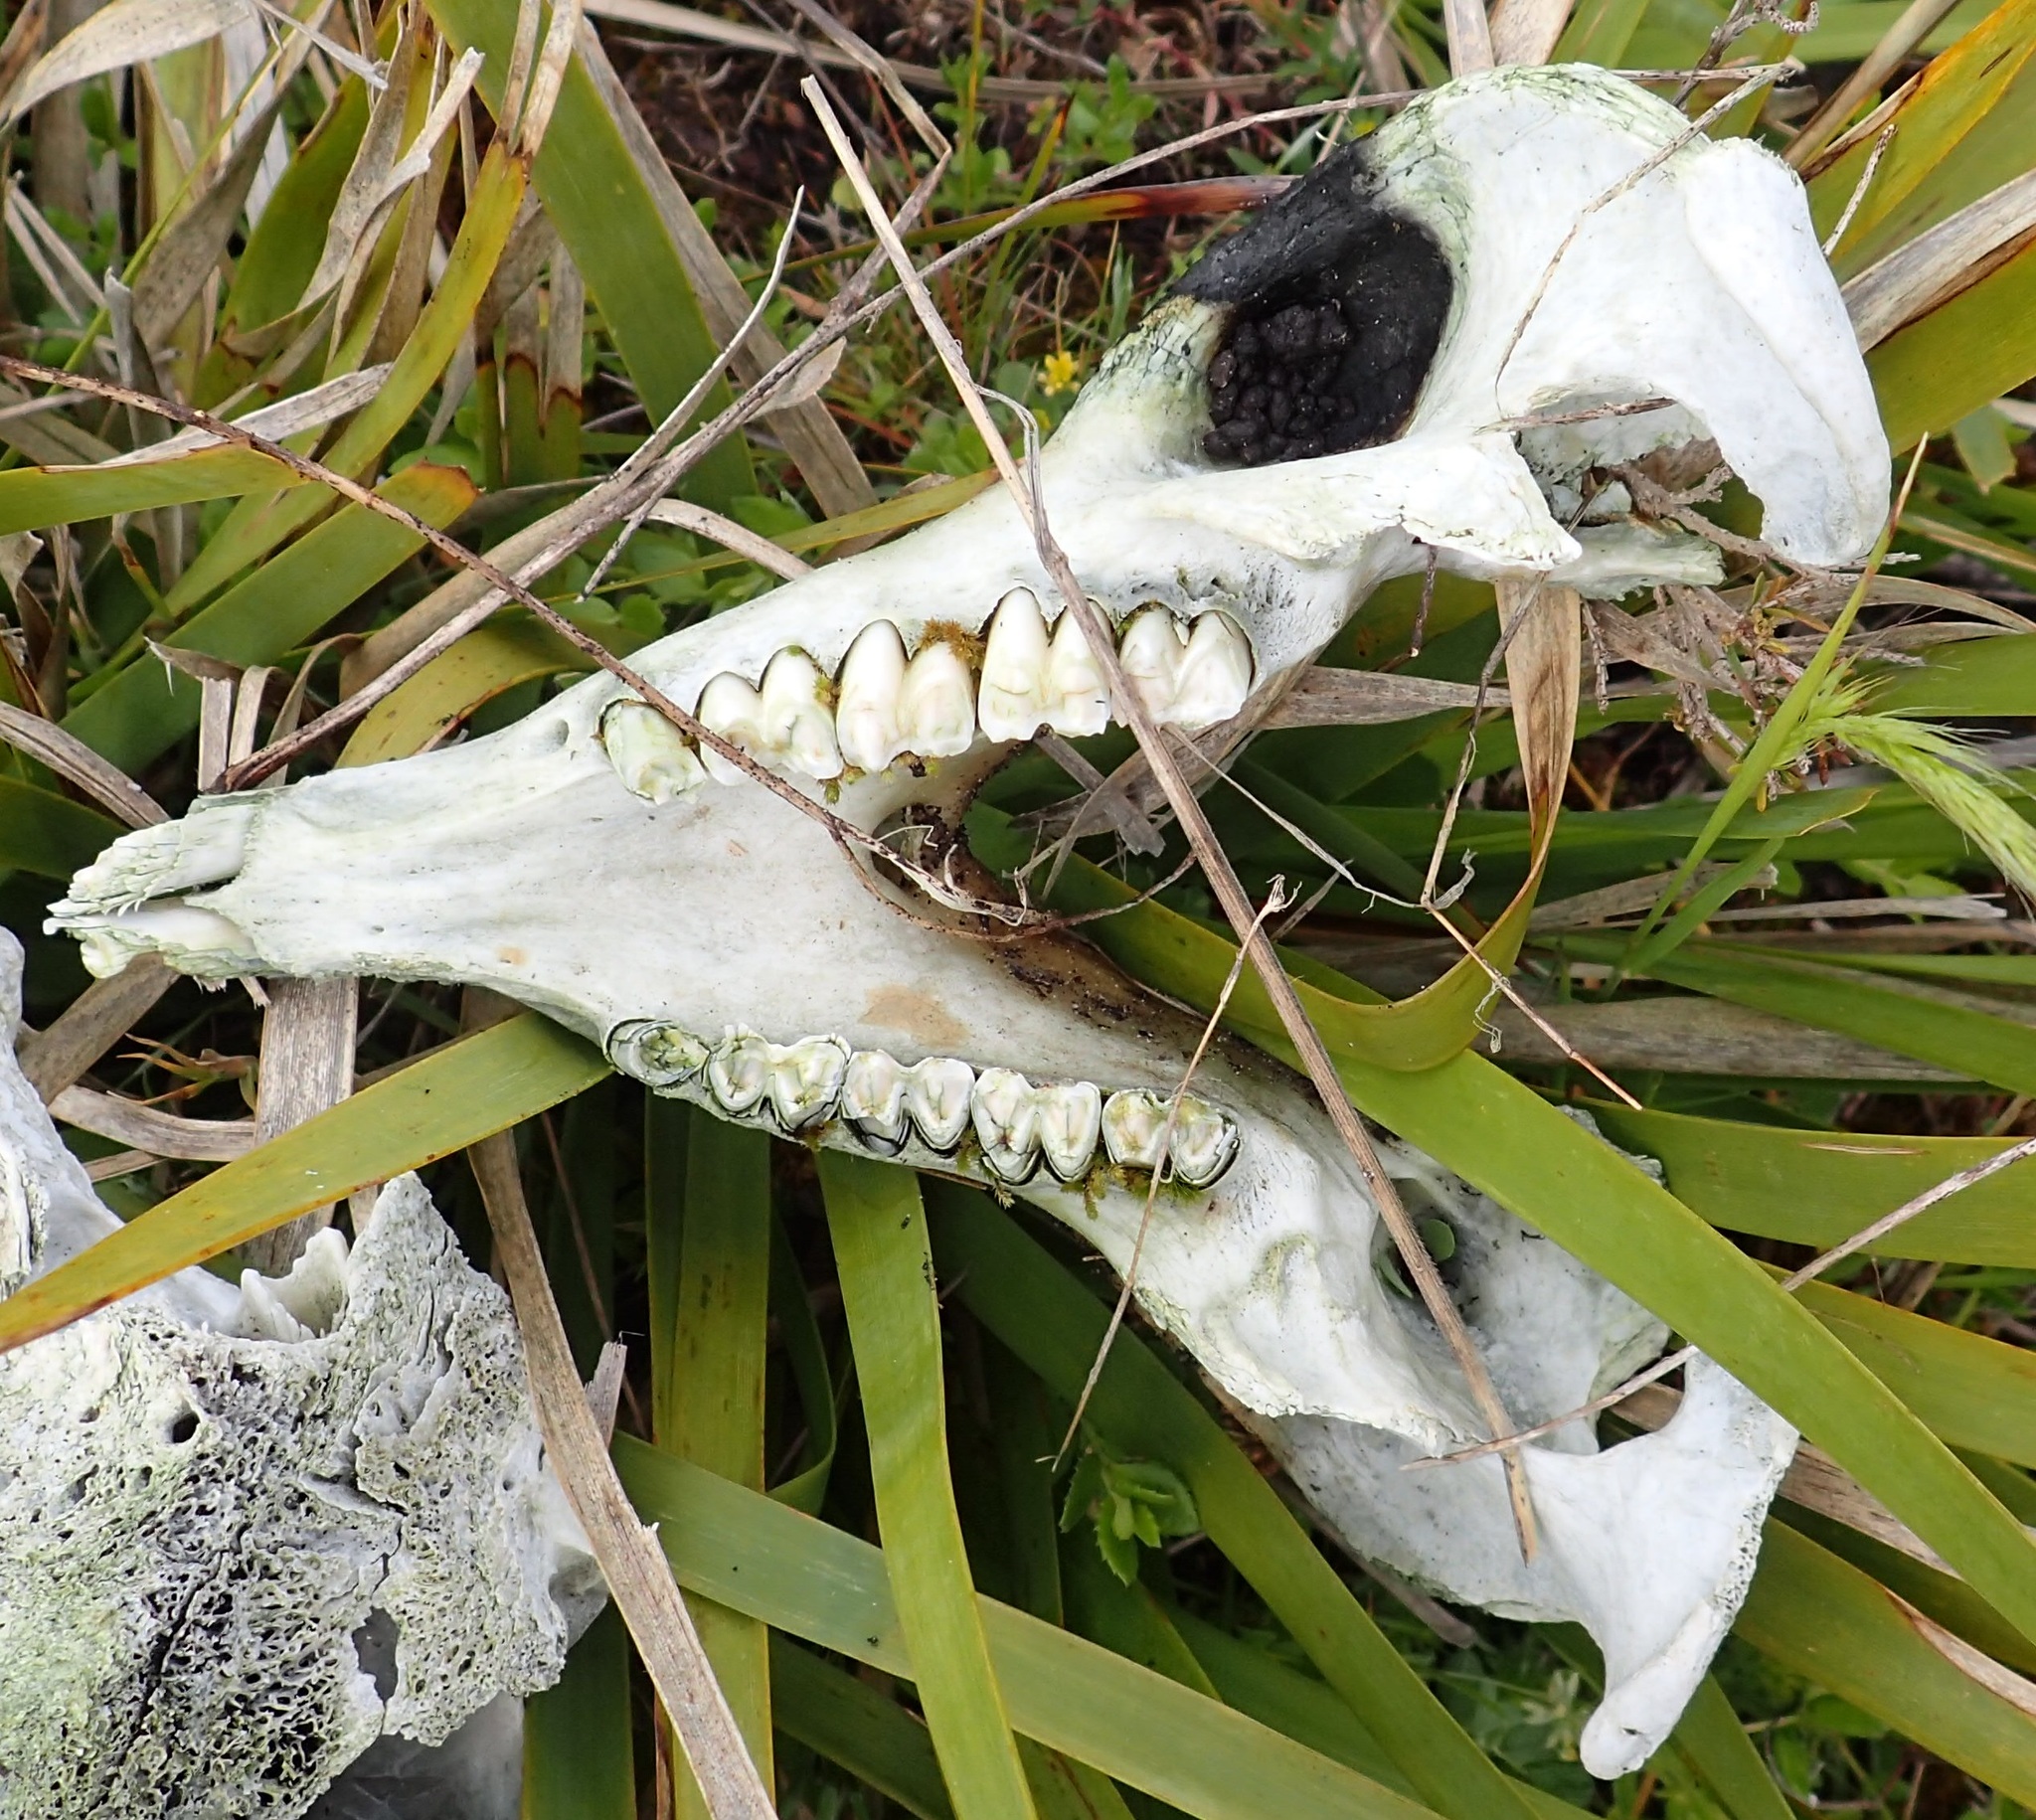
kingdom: Animalia
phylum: Chordata
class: Mammalia
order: Diprotodontia
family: Vombatidae
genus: Vombatus
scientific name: Vombatus ursinus
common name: Common wombat
